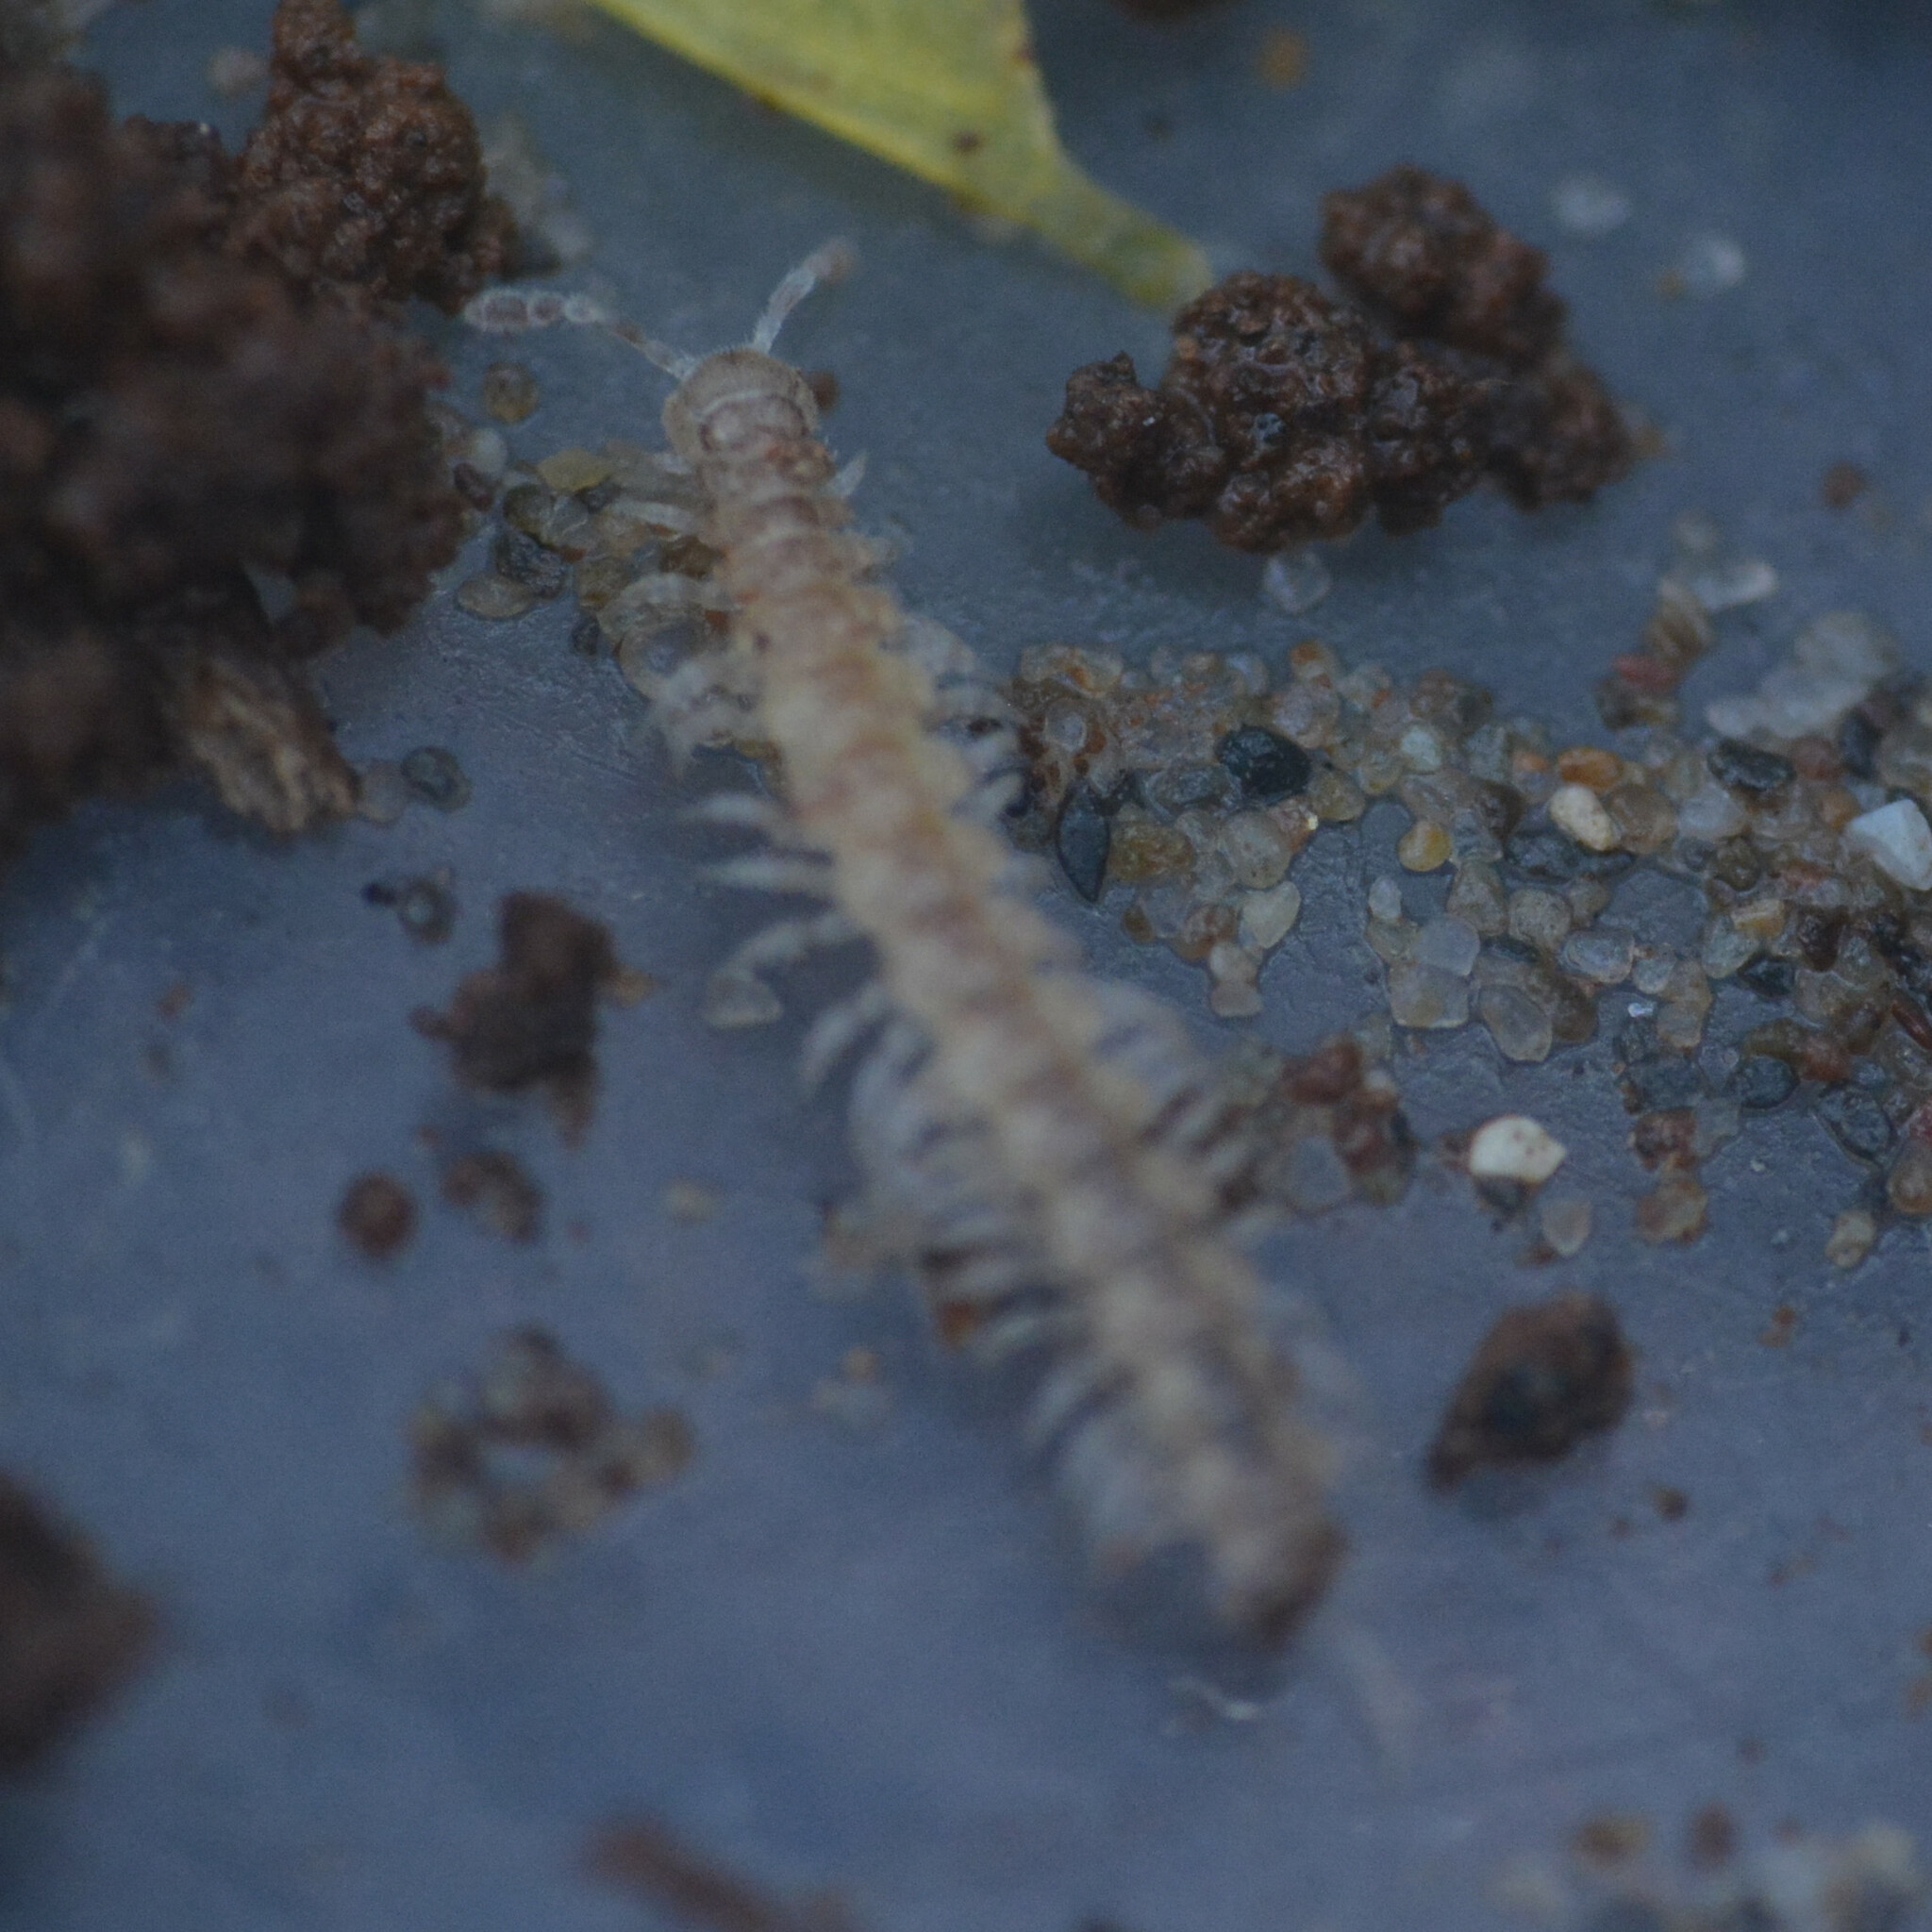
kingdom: Animalia
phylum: Arthropoda
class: Diplopoda
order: Polydesmida
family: Polydesmidae
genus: Brachydesmus
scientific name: Brachydesmus superus
